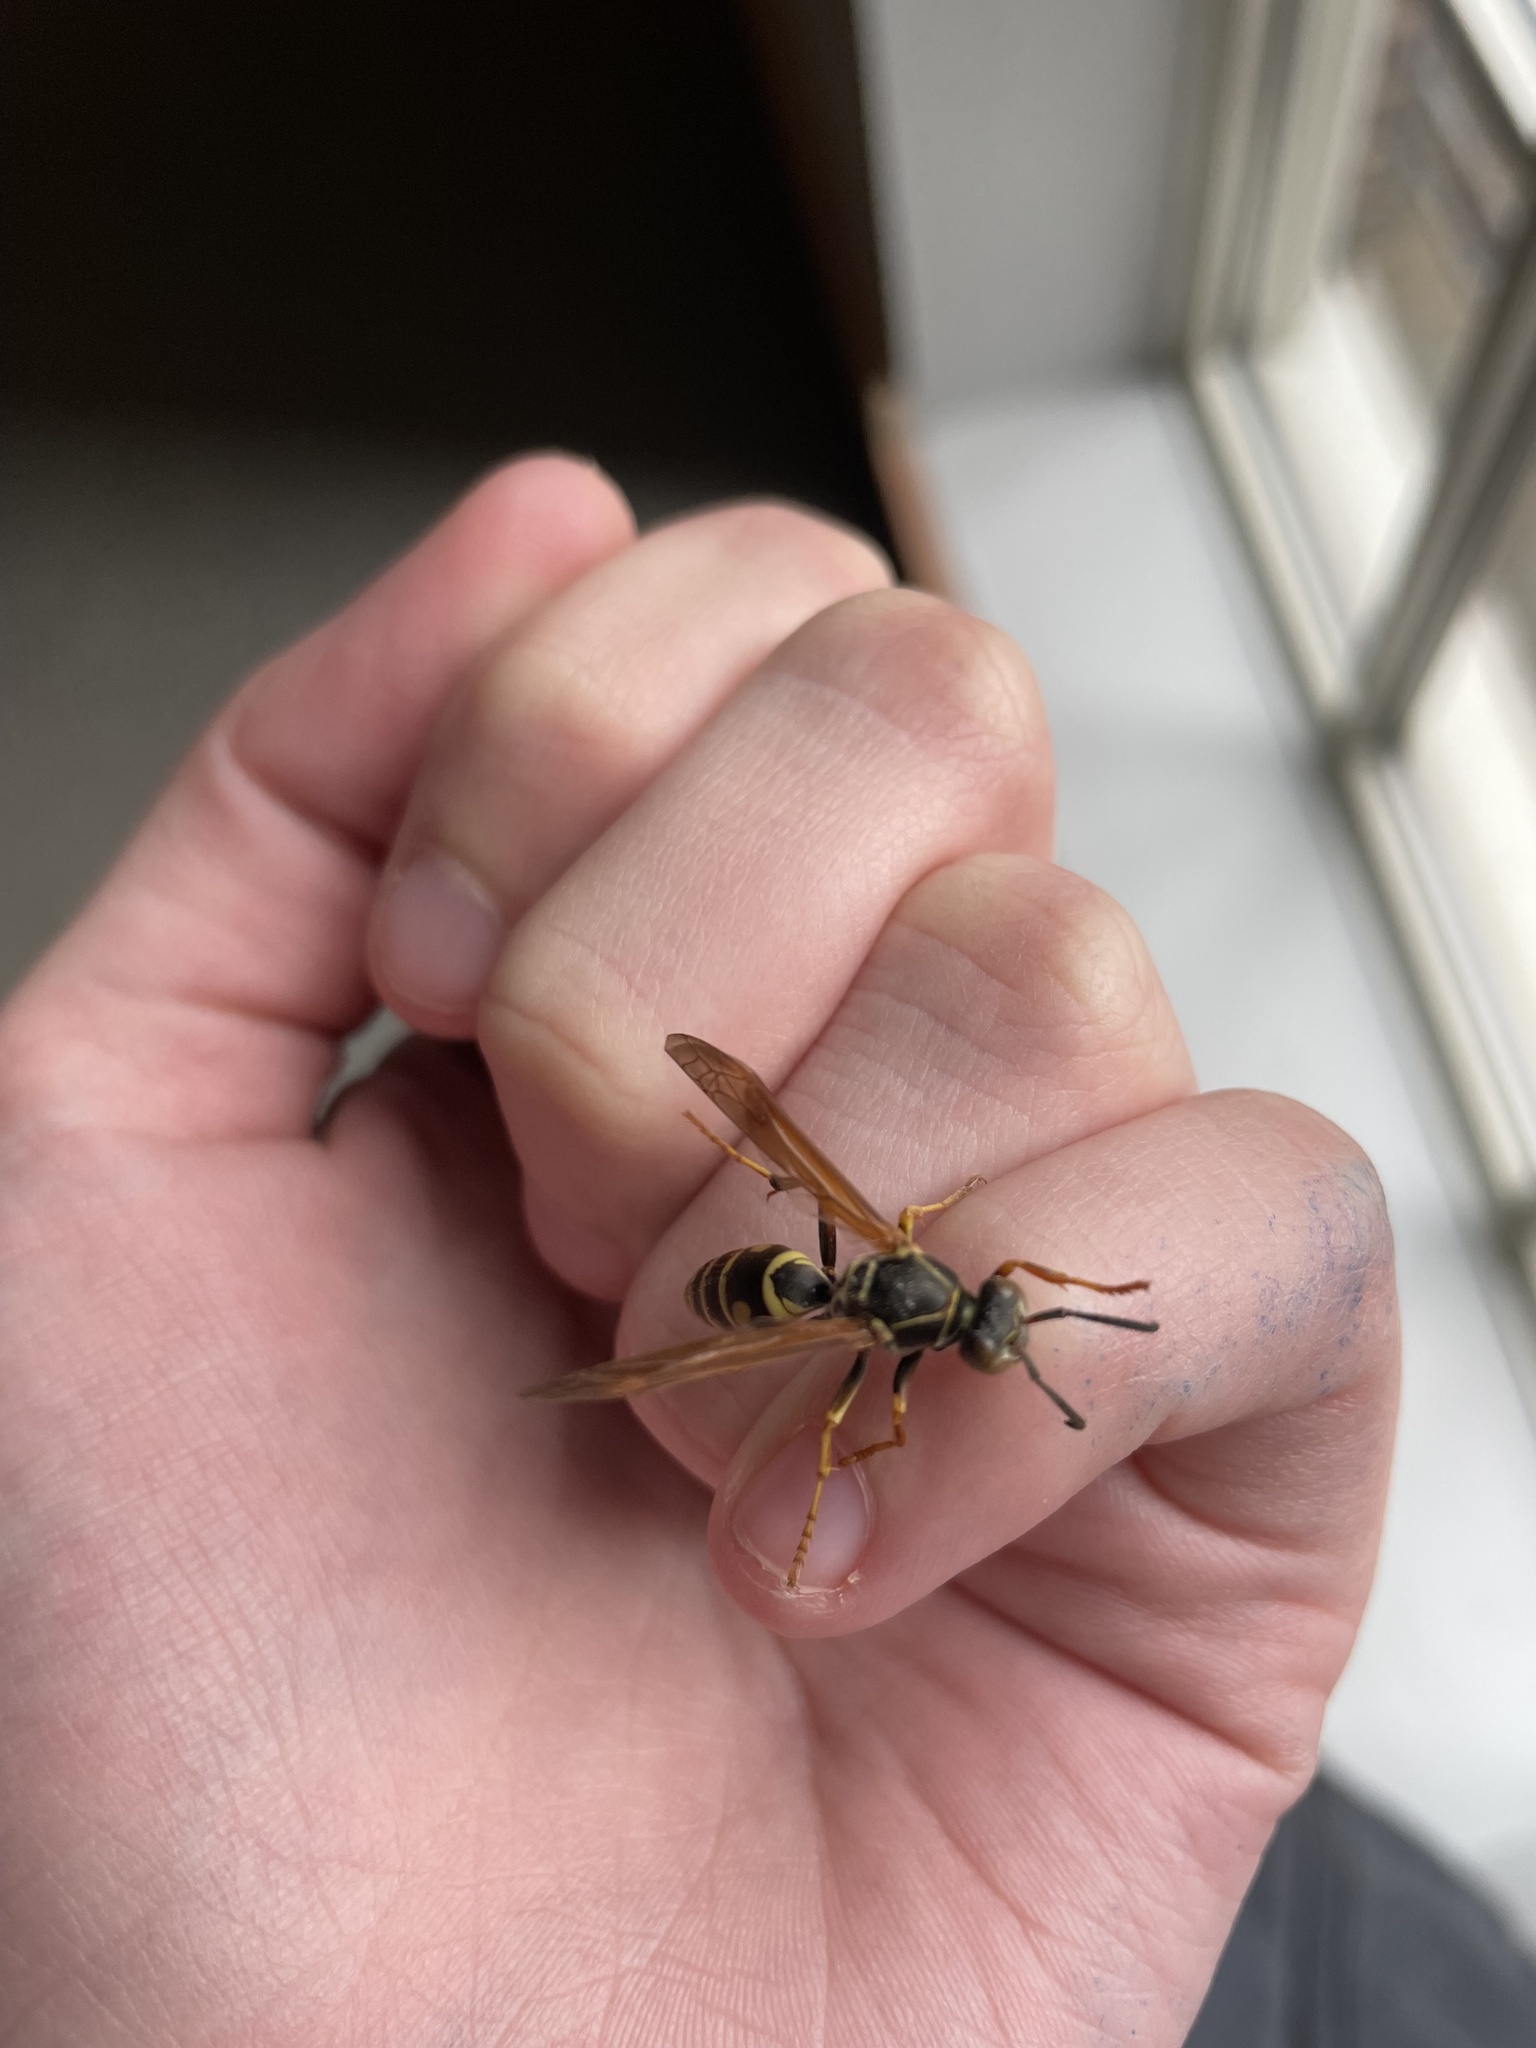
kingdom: Animalia
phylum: Arthropoda
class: Insecta
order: Hymenoptera
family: Eumenidae
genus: Polistes
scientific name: Polistes fuscatus
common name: Dark paper wasp
